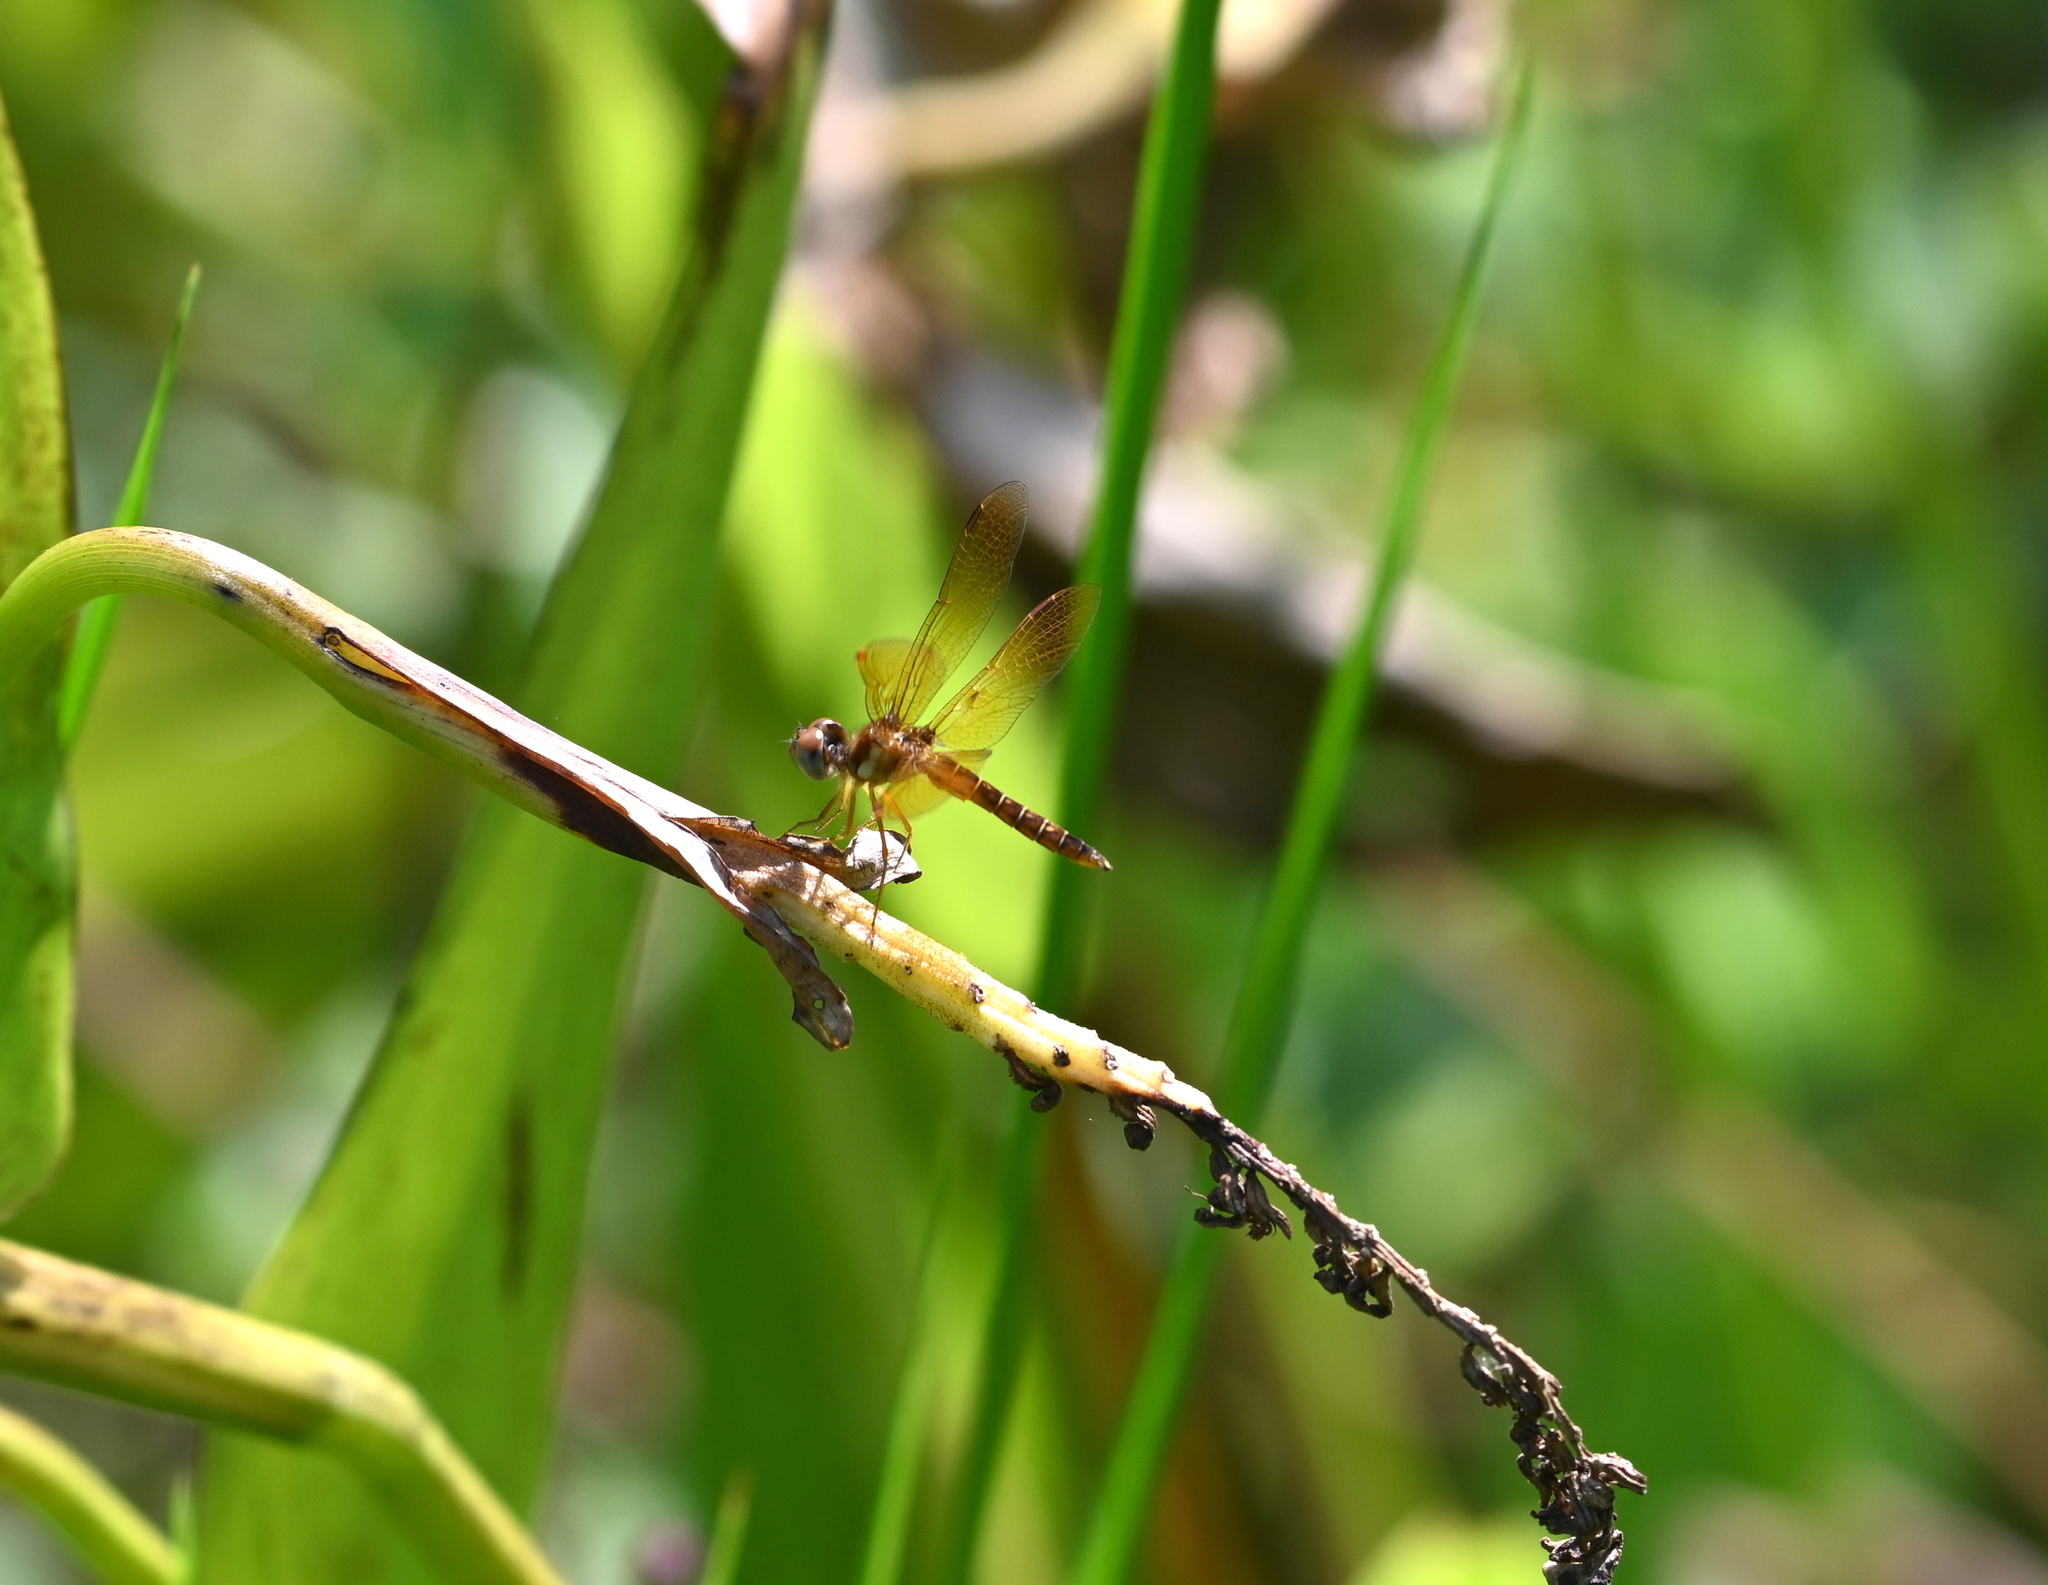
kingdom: Animalia
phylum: Arthropoda
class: Insecta
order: Odonata
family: Libellulidae
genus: Perithemis
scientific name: Perithemis tenera
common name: Eastern amberwing
